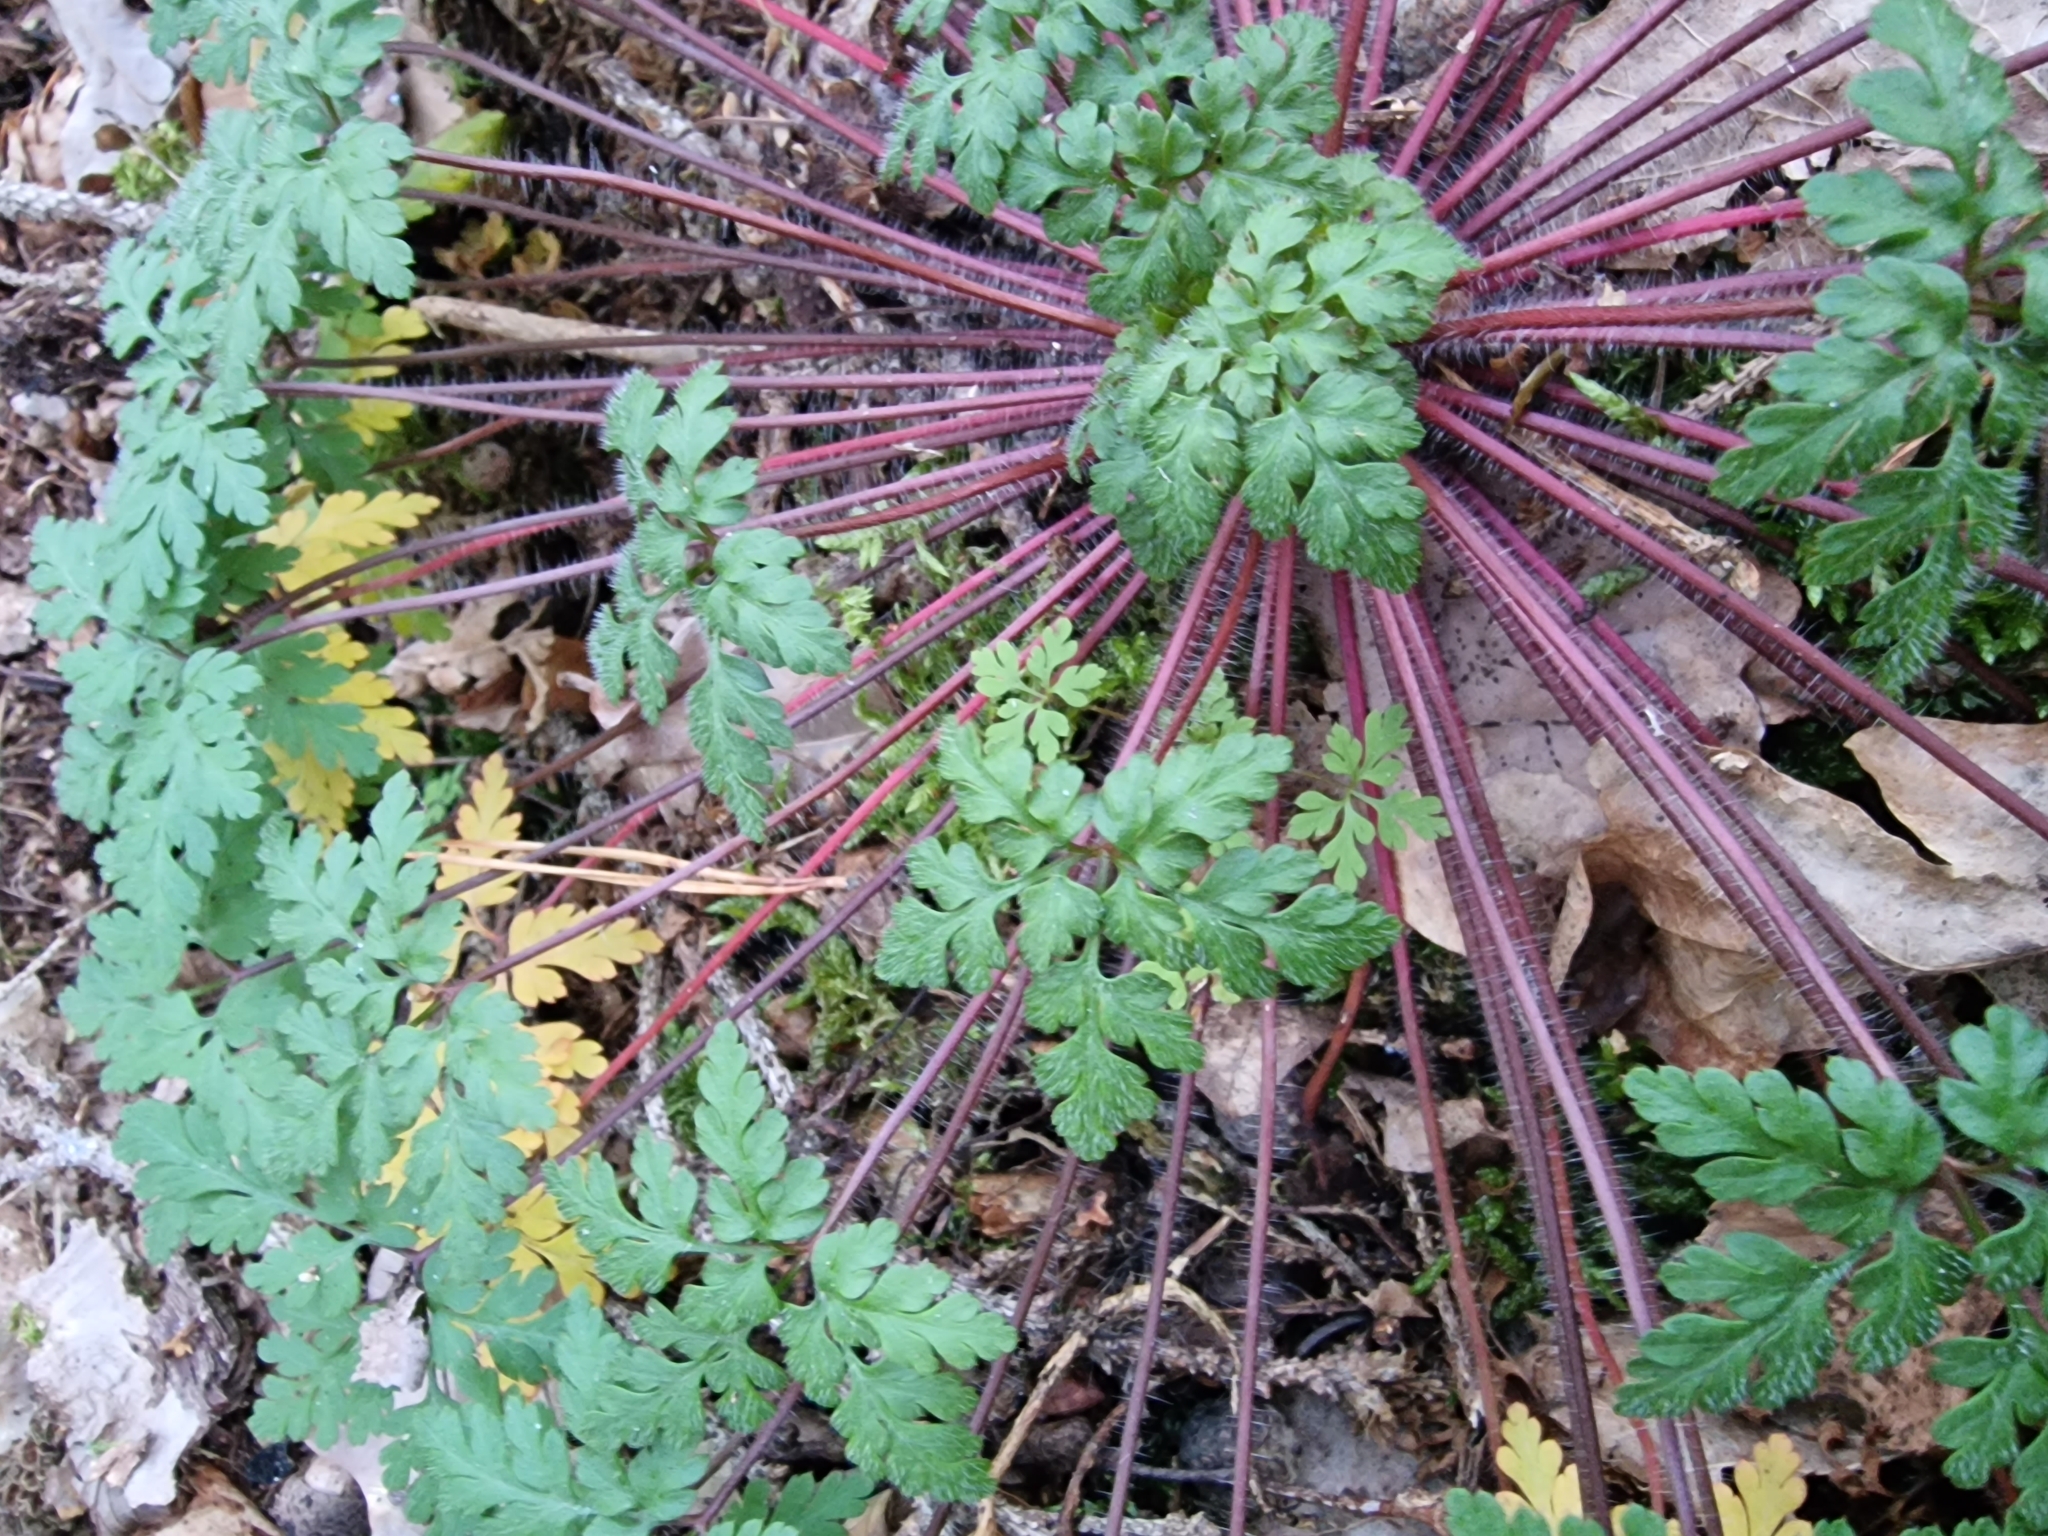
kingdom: Plantae
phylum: Tracheophyta
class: Magnoliopsida
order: Geraniales
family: Geraniaceae
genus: Geranium
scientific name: Geranium robertianum
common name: Herb-robert
